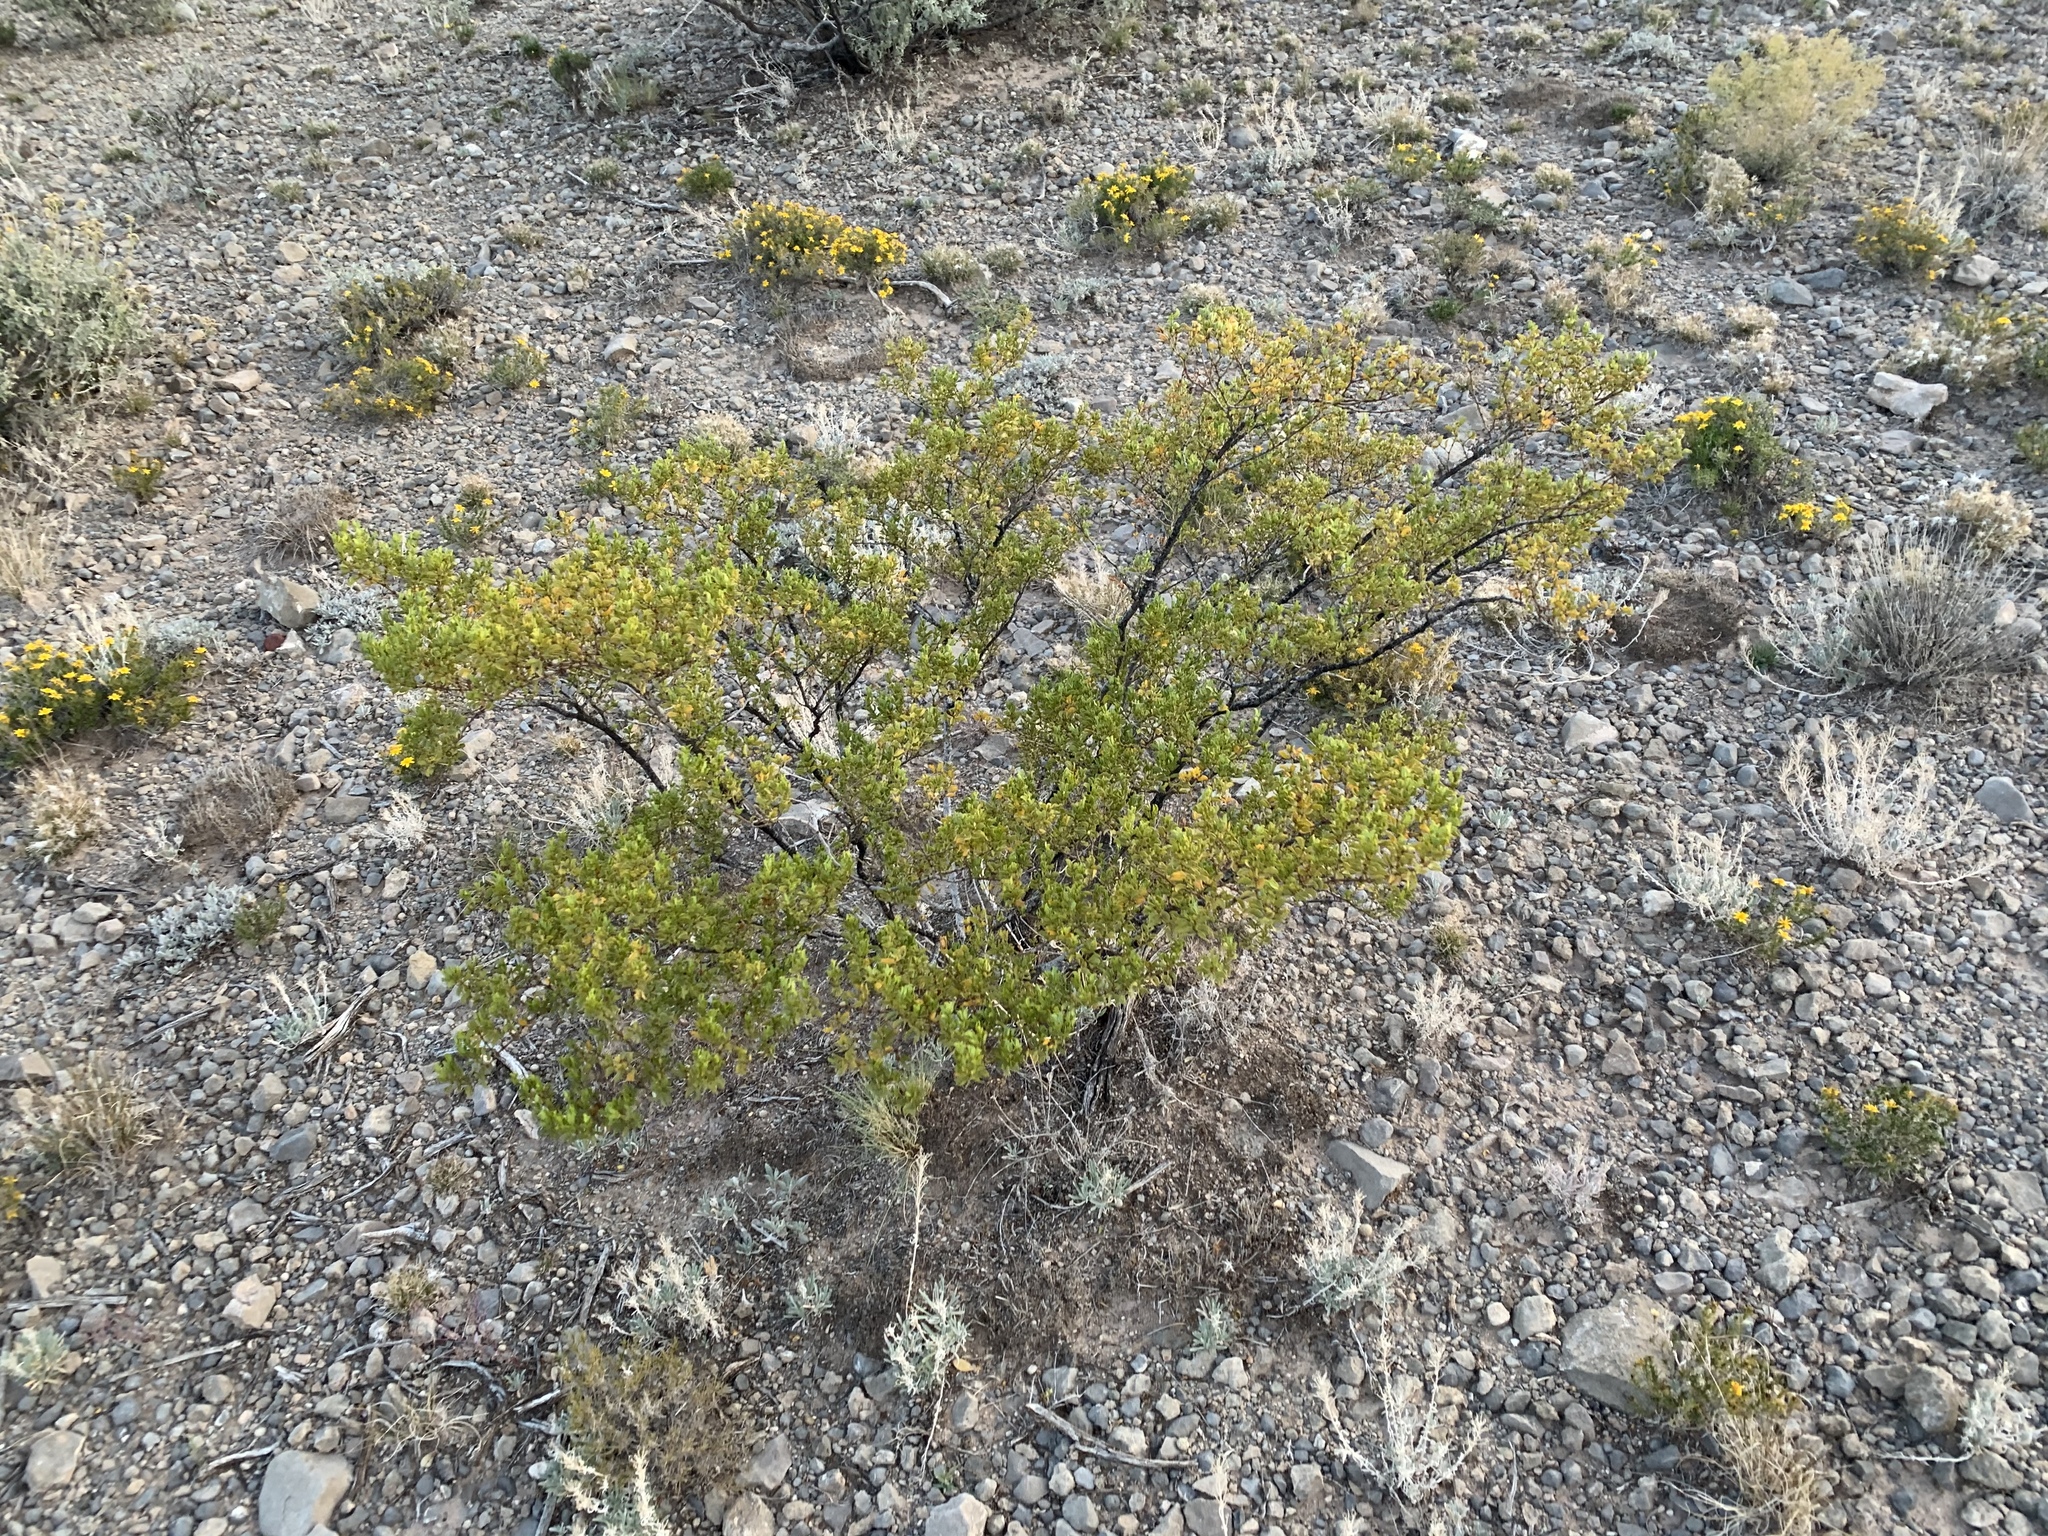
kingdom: Plantae
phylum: Tracheophyta
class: Magnoliopsida
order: Zygophyllales
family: Zygophyllaceae
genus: Larrea
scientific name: Larrea tridentata
